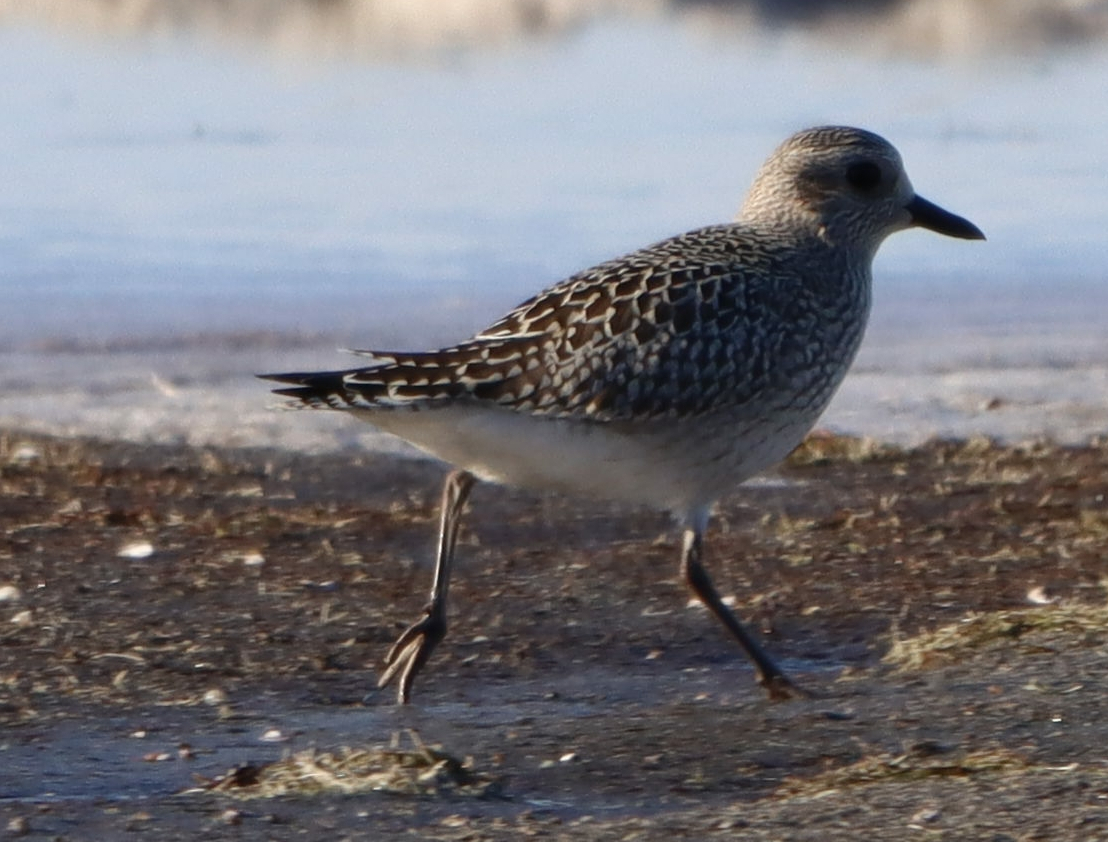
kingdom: Animalia
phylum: Chordata
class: Aves
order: Charadriiformes
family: Charadriidae
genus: Pluvialis
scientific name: Pluvialis squatarola
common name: Grey plover
